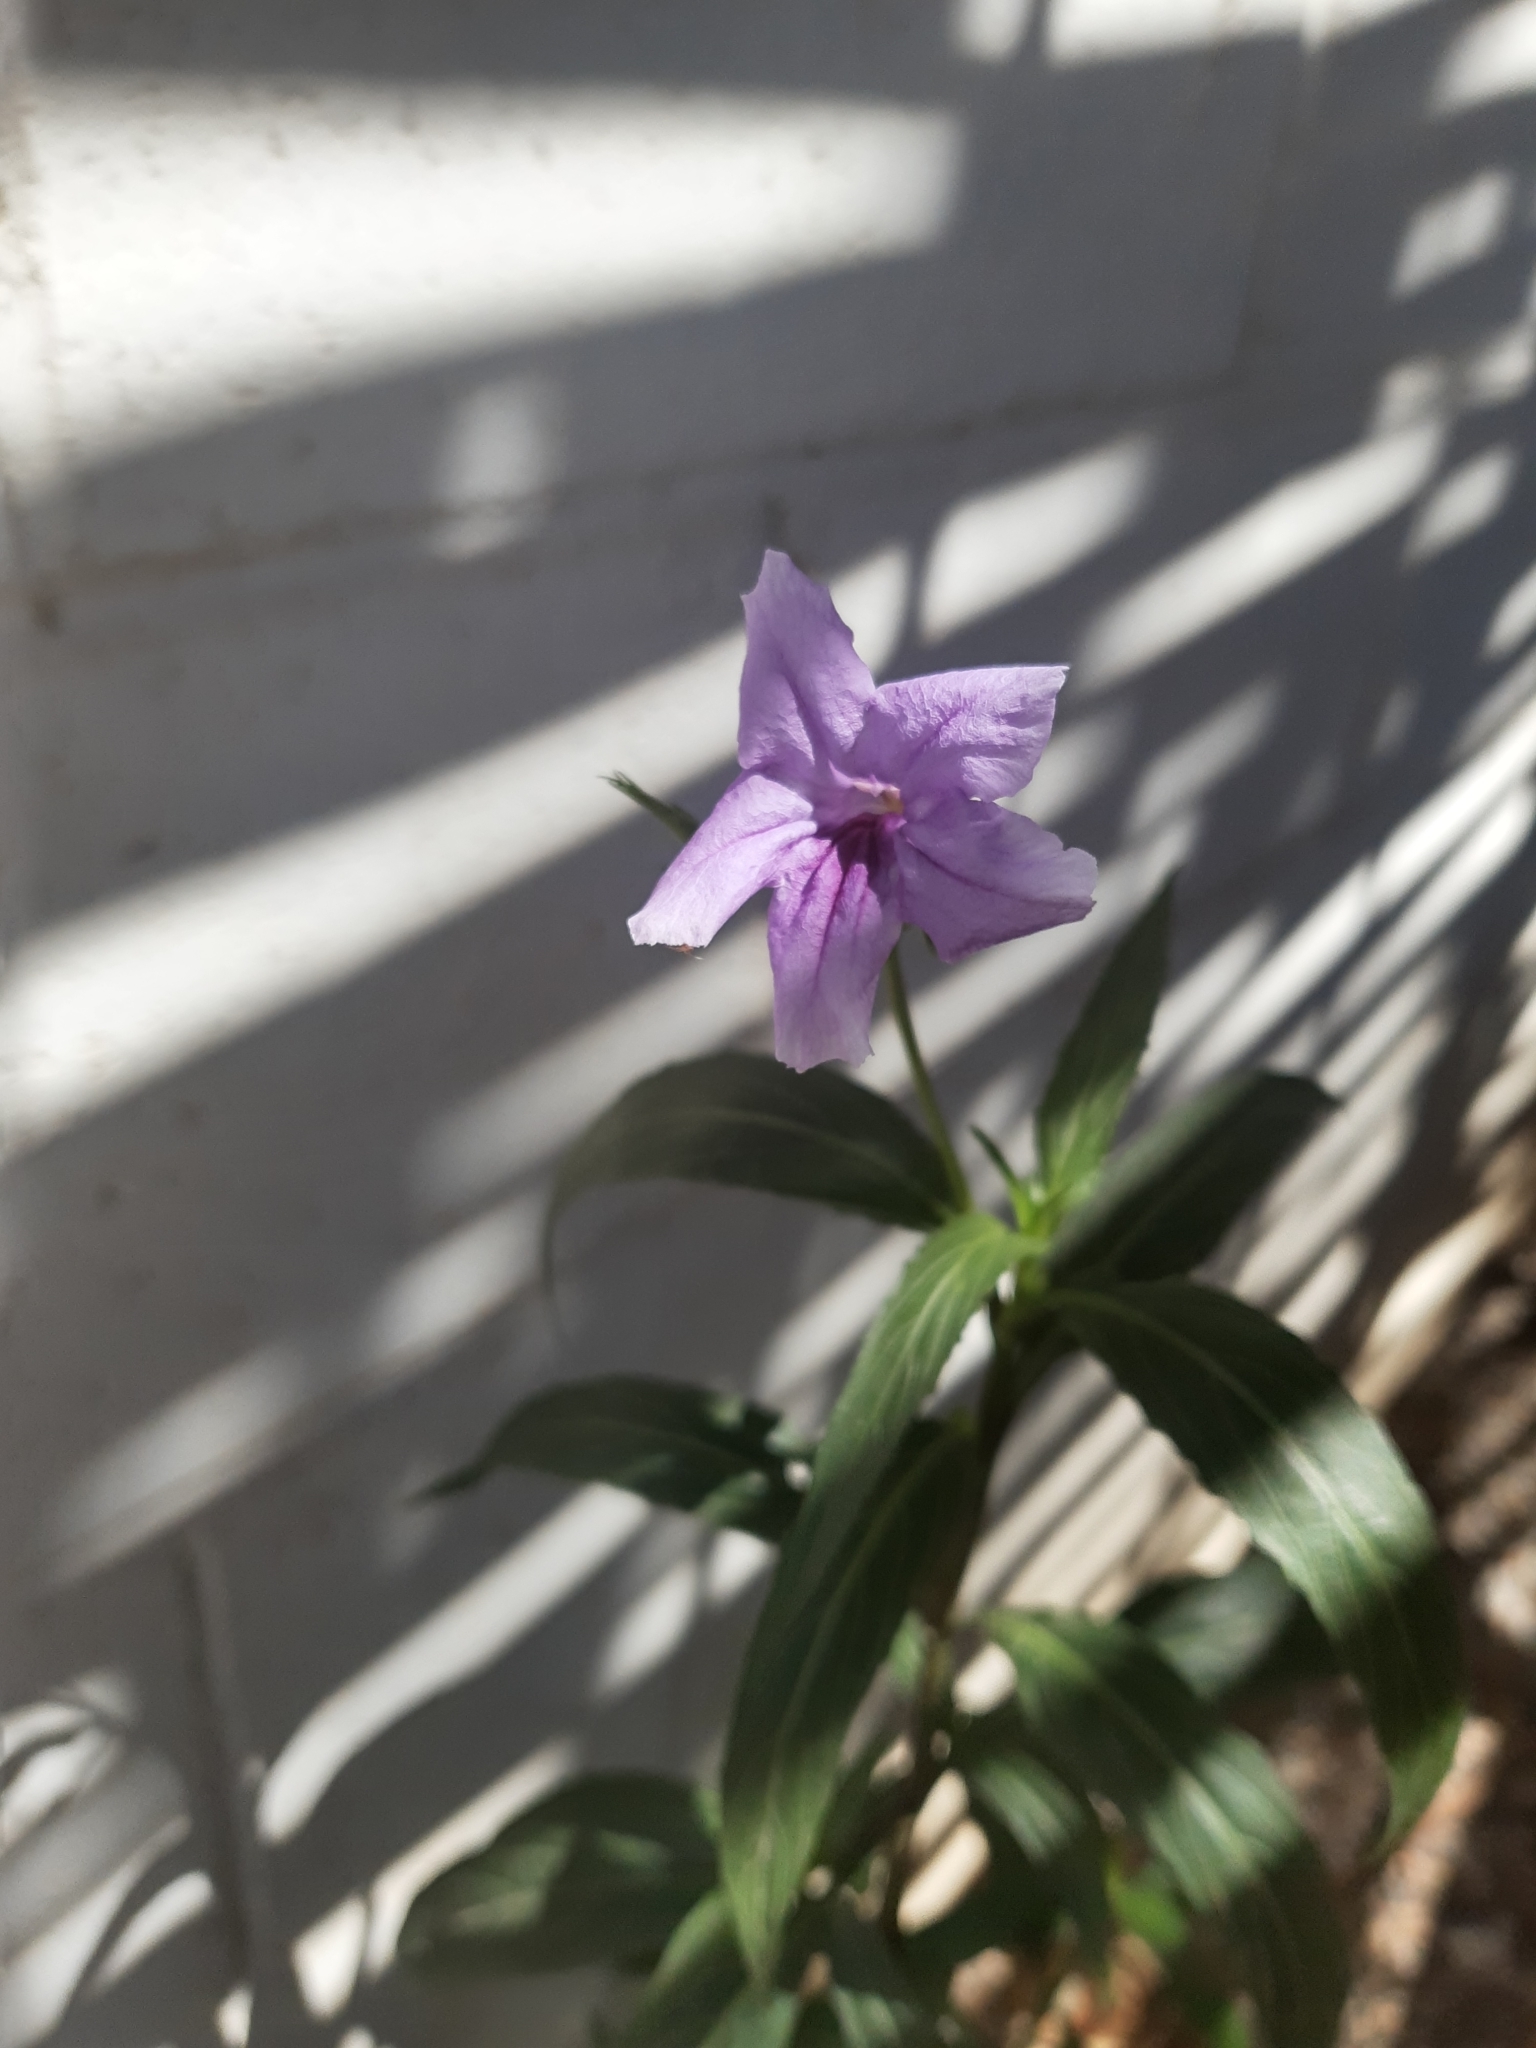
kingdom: Plantae
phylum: Tracheophyta
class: Magnoliopsida
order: Lamiales
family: Acanthaceae
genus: Ruellia
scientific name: Ruellia simplex
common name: Softseed wild petunia
